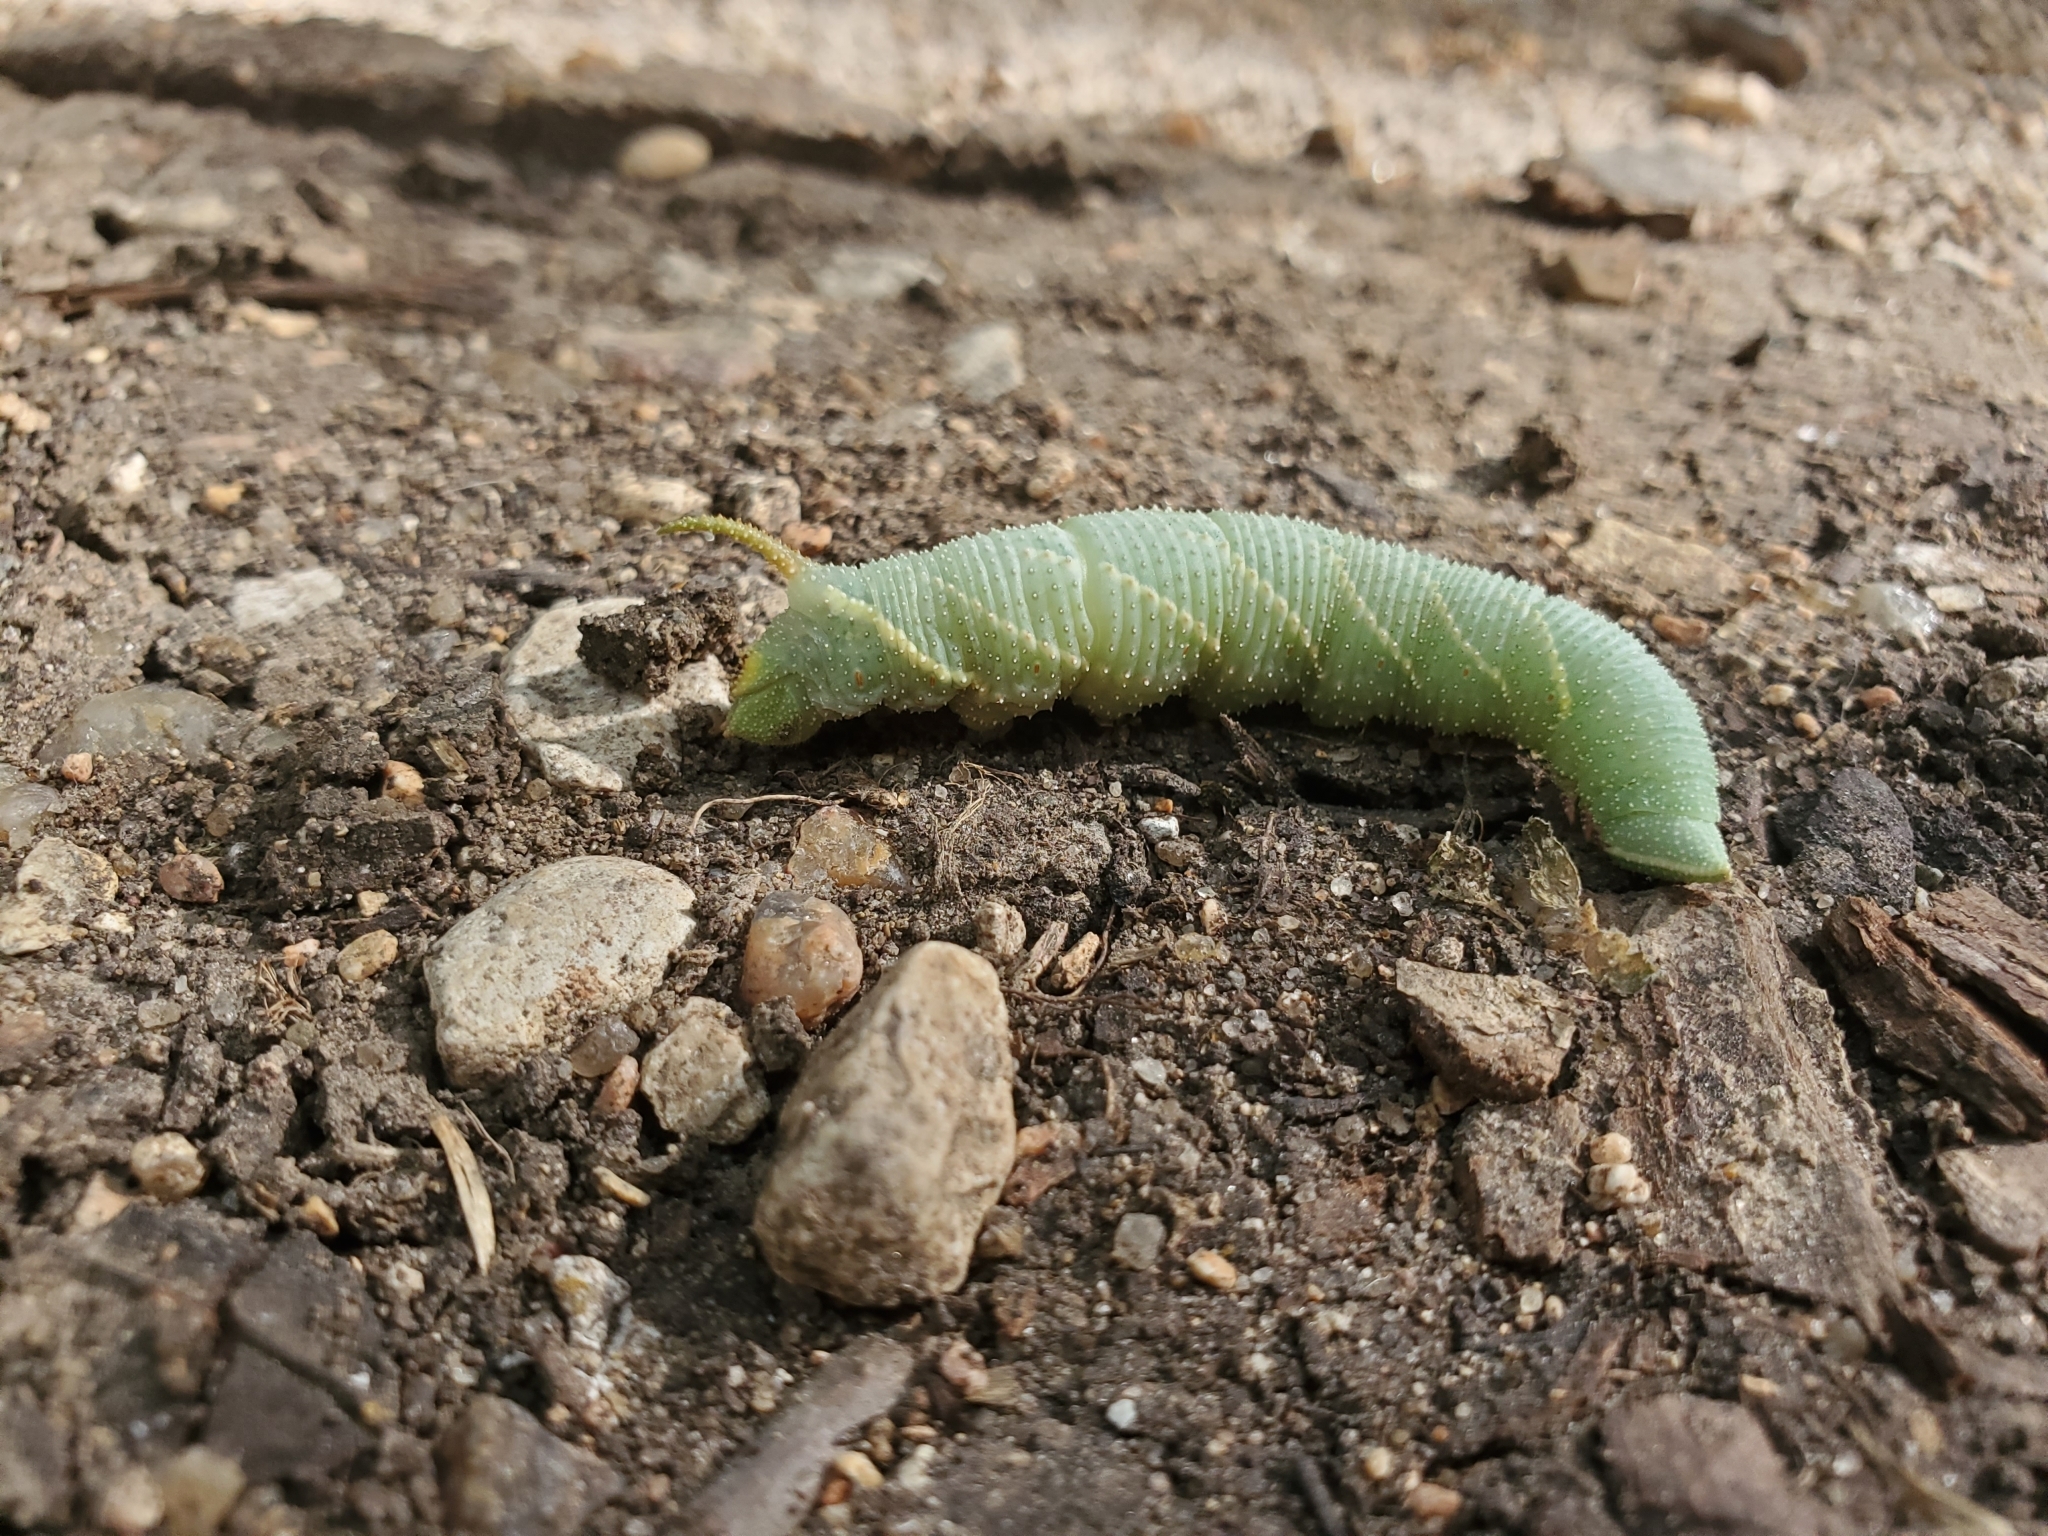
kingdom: Animalia
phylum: Arthropoda
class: Insecta
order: Lepidoptera
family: Sphingidae
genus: Amorpha
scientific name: Amorpha juglandis
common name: Walnut sphinx
